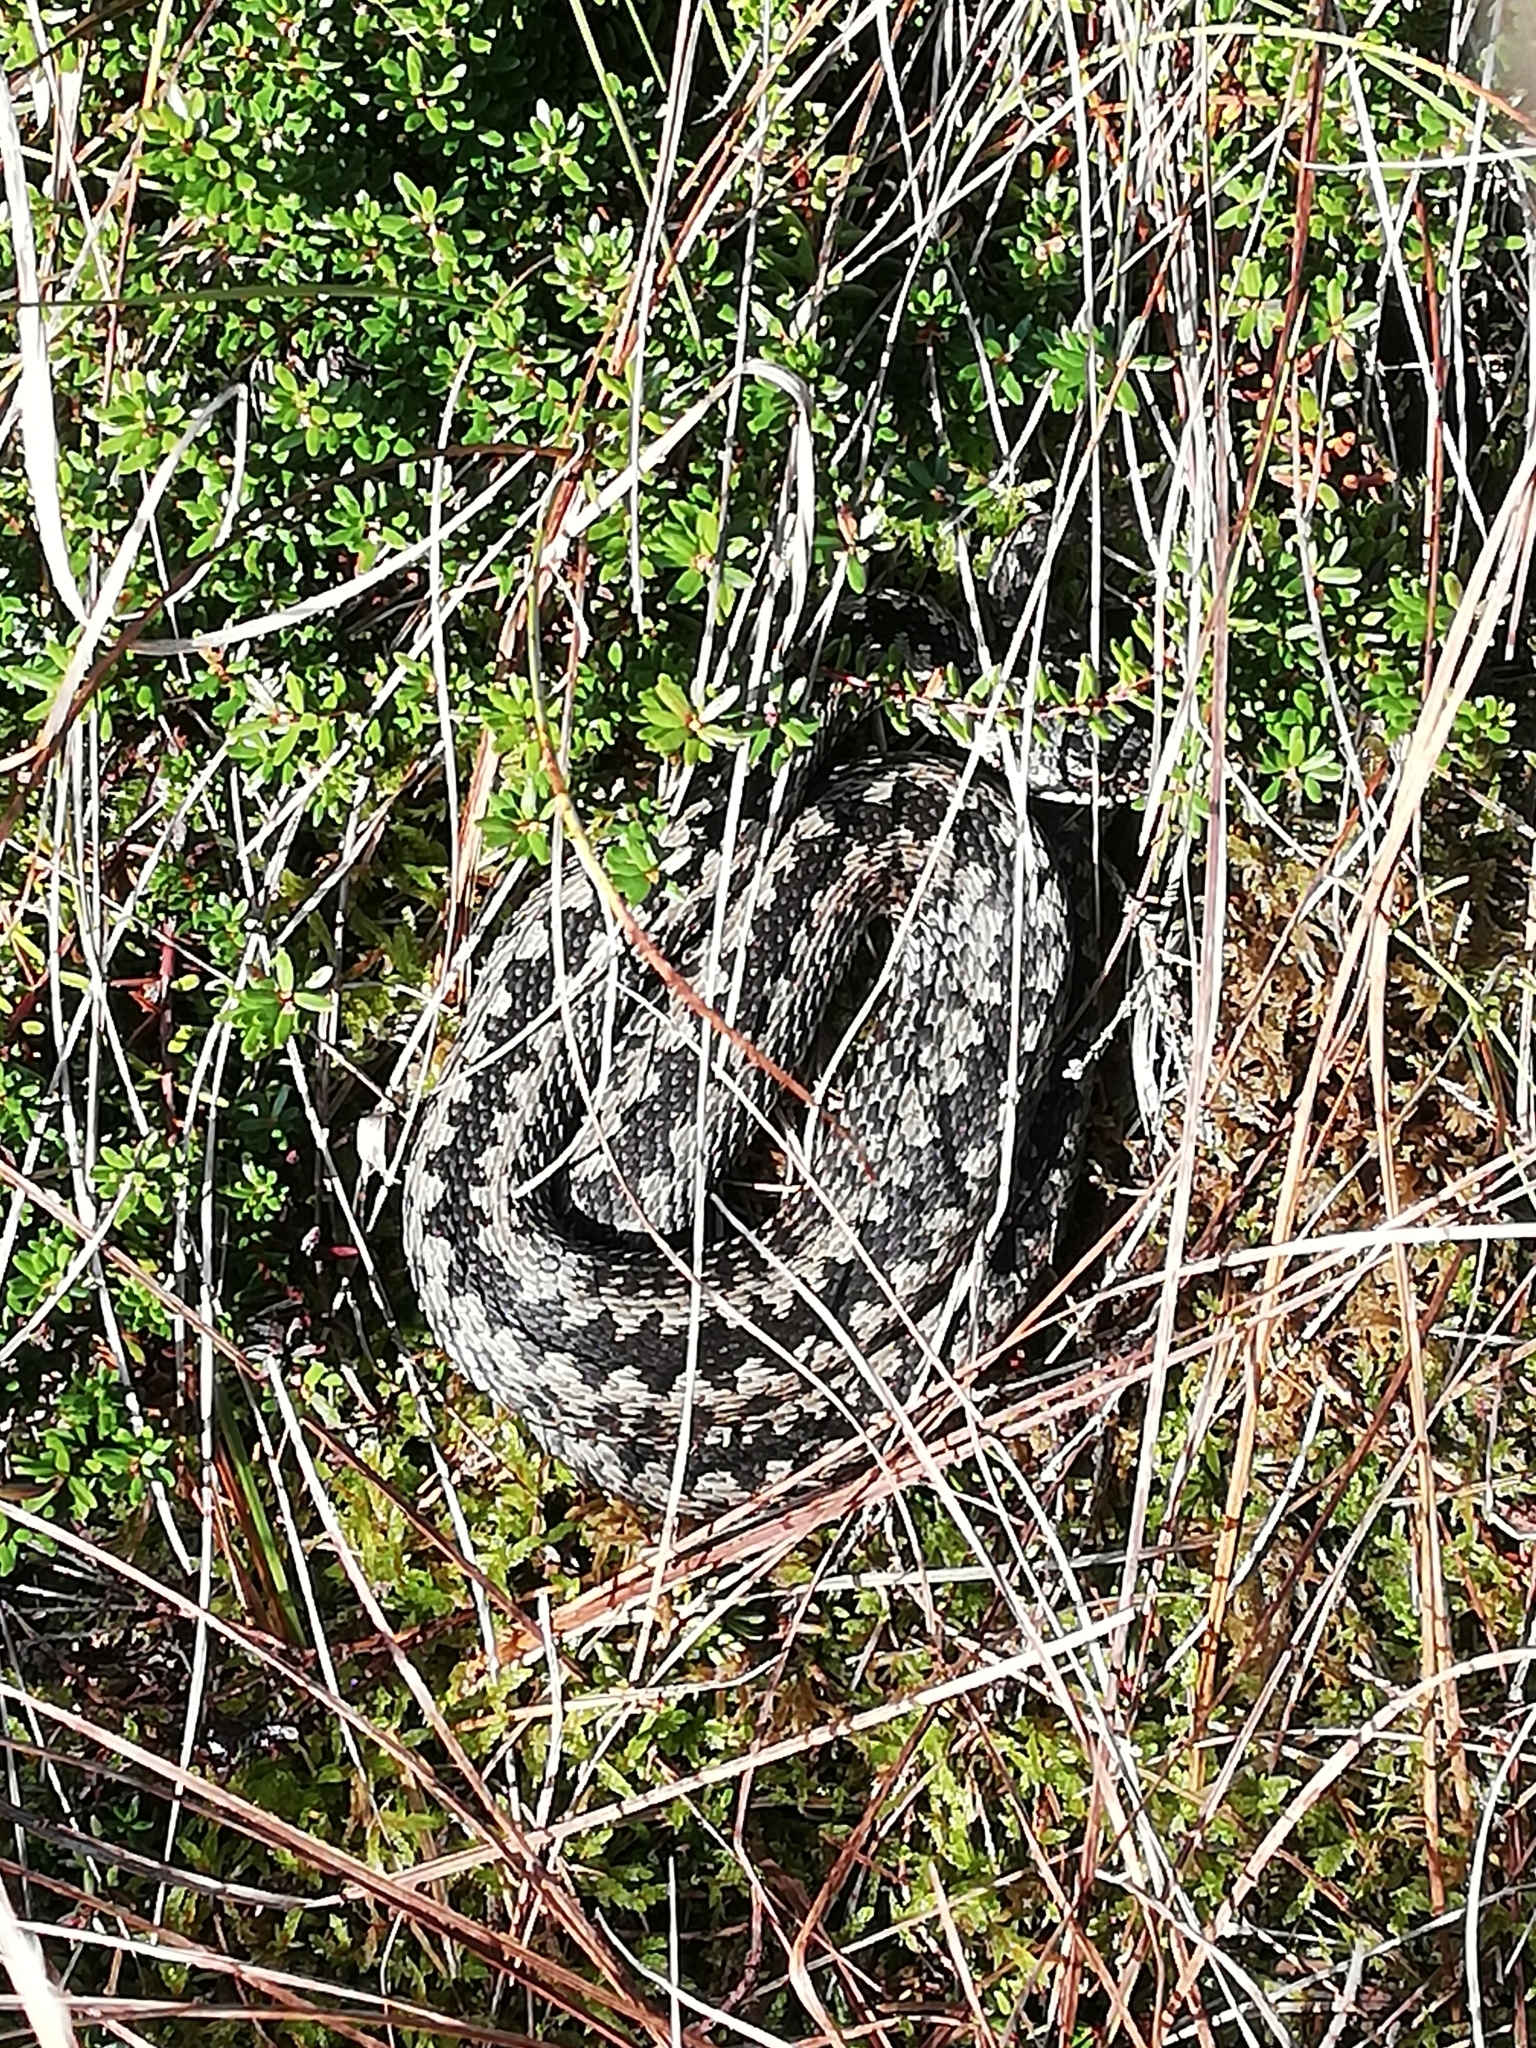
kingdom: Animalia
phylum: Chordata
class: Squamata
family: Viperidae
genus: Vipera
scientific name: Vipera berus
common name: Adder
